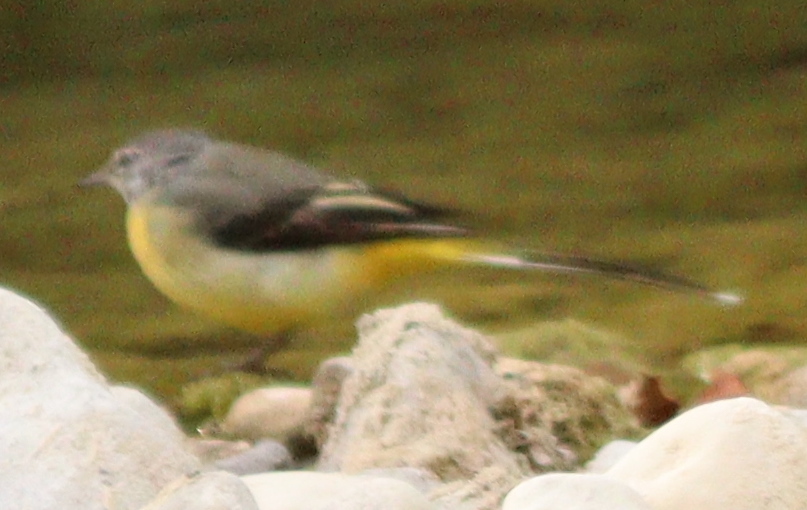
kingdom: Animalia
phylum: Chordata
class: Aves
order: Passeriformes
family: Motacillidae
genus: Motacilla
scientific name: Motacilla cinerea
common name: Grey wagtail
